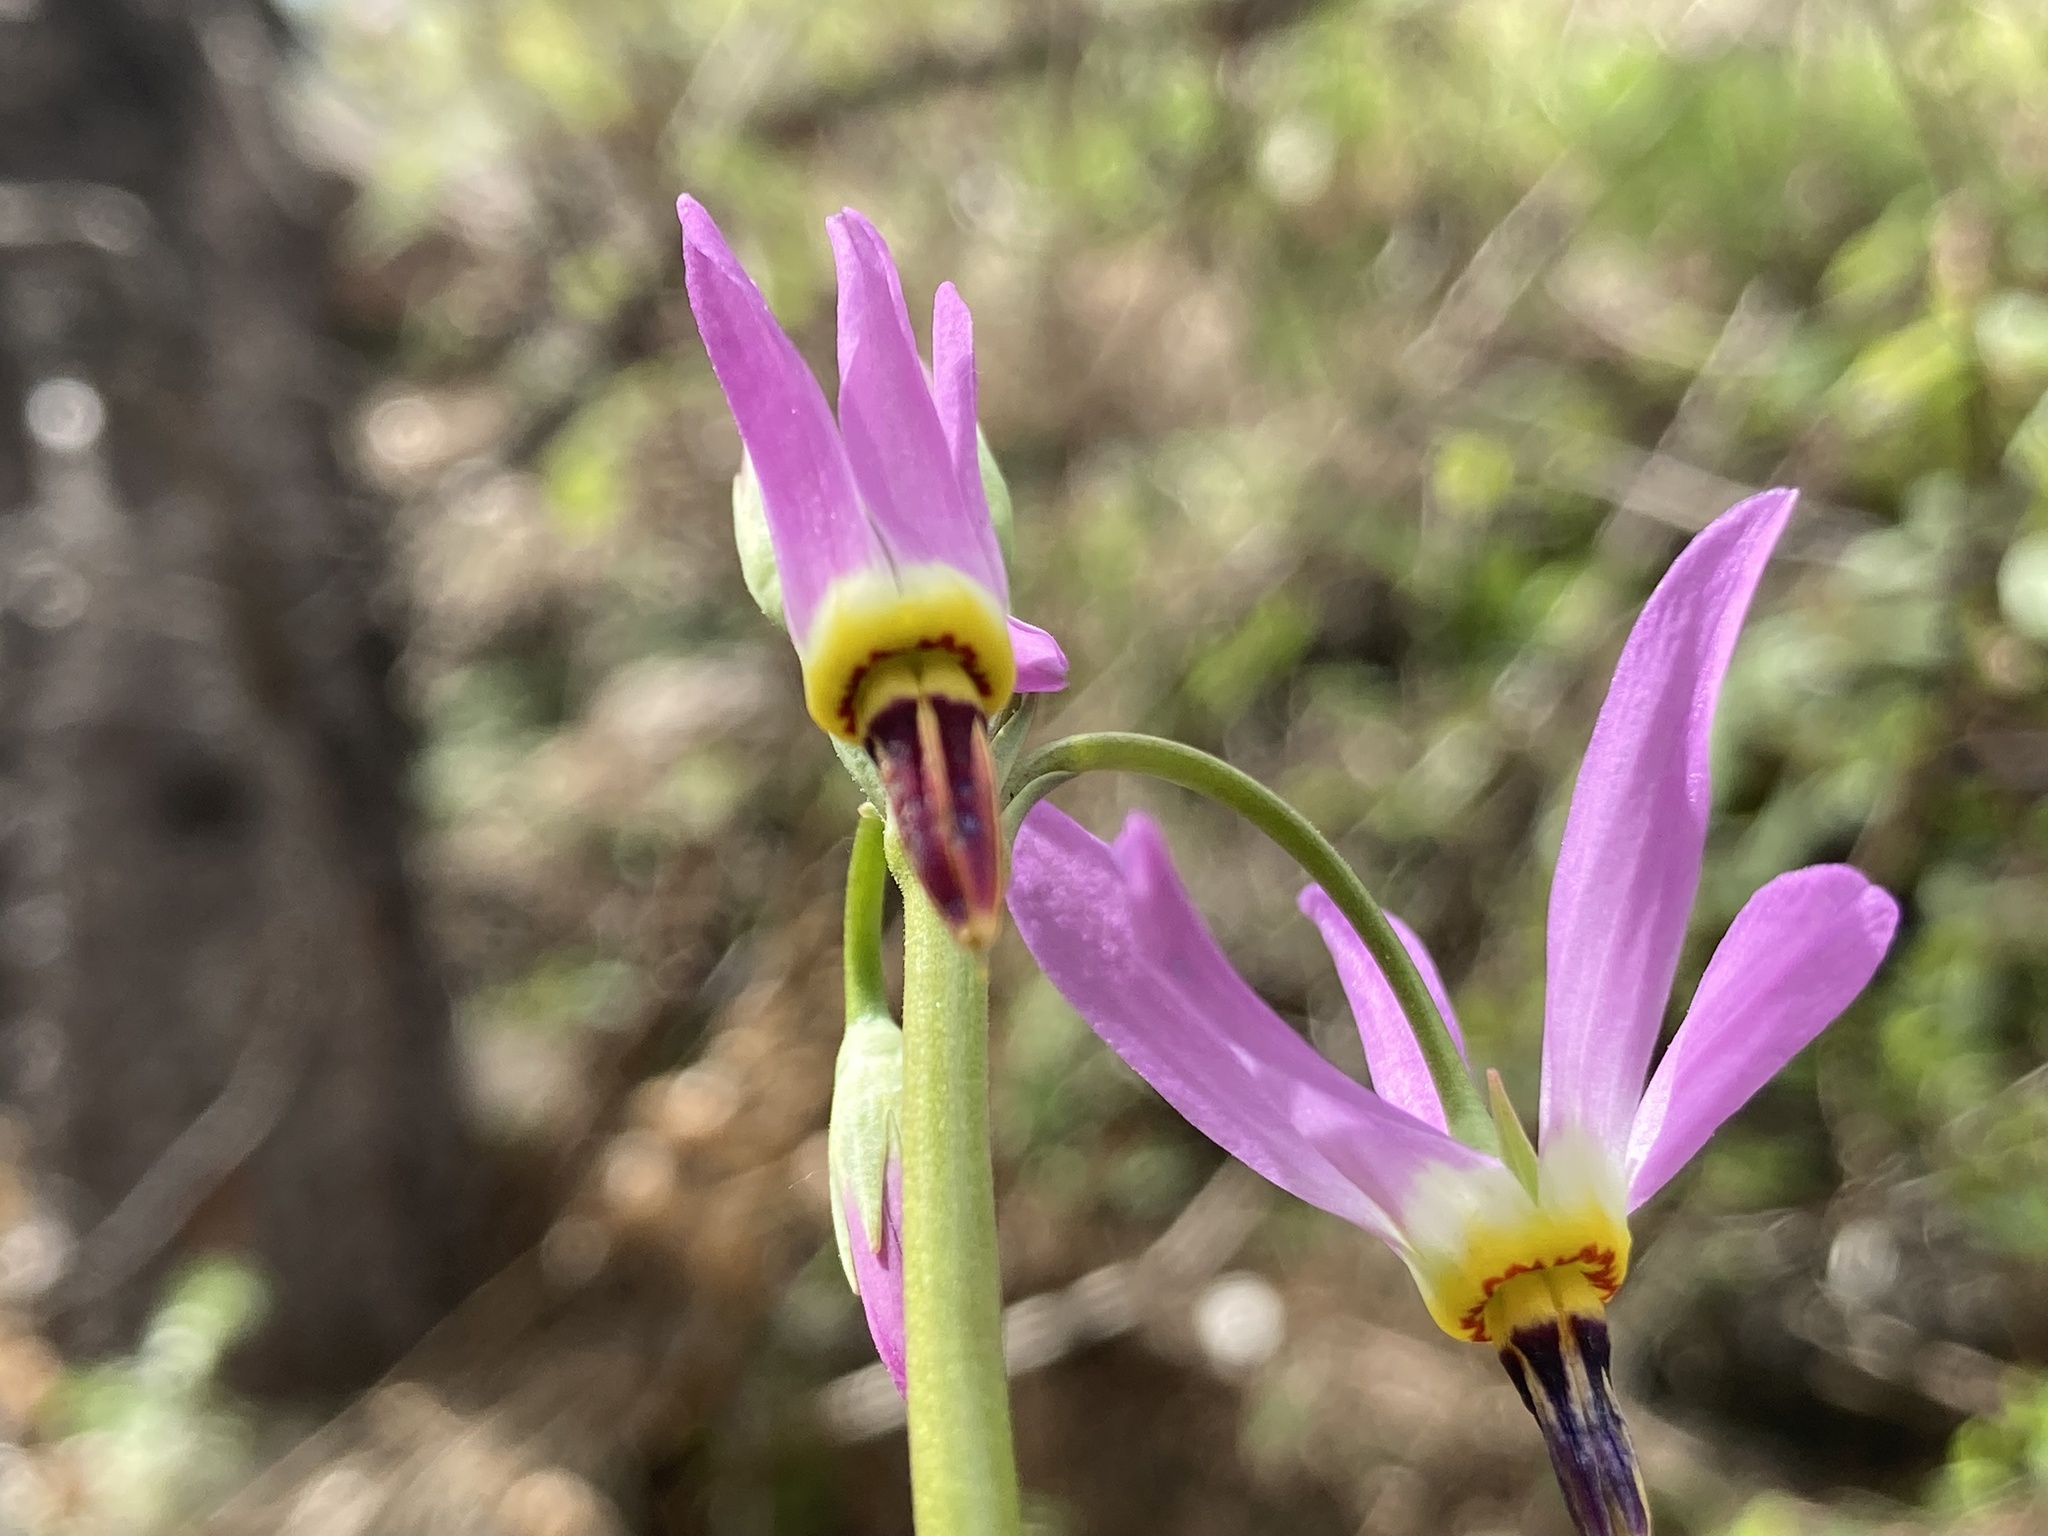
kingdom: Plantae
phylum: Tracheophyta
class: Magnoliopsida
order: Ericales
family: Primulaceae
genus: Dodecatheon
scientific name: Dodecatheon pulchellum
